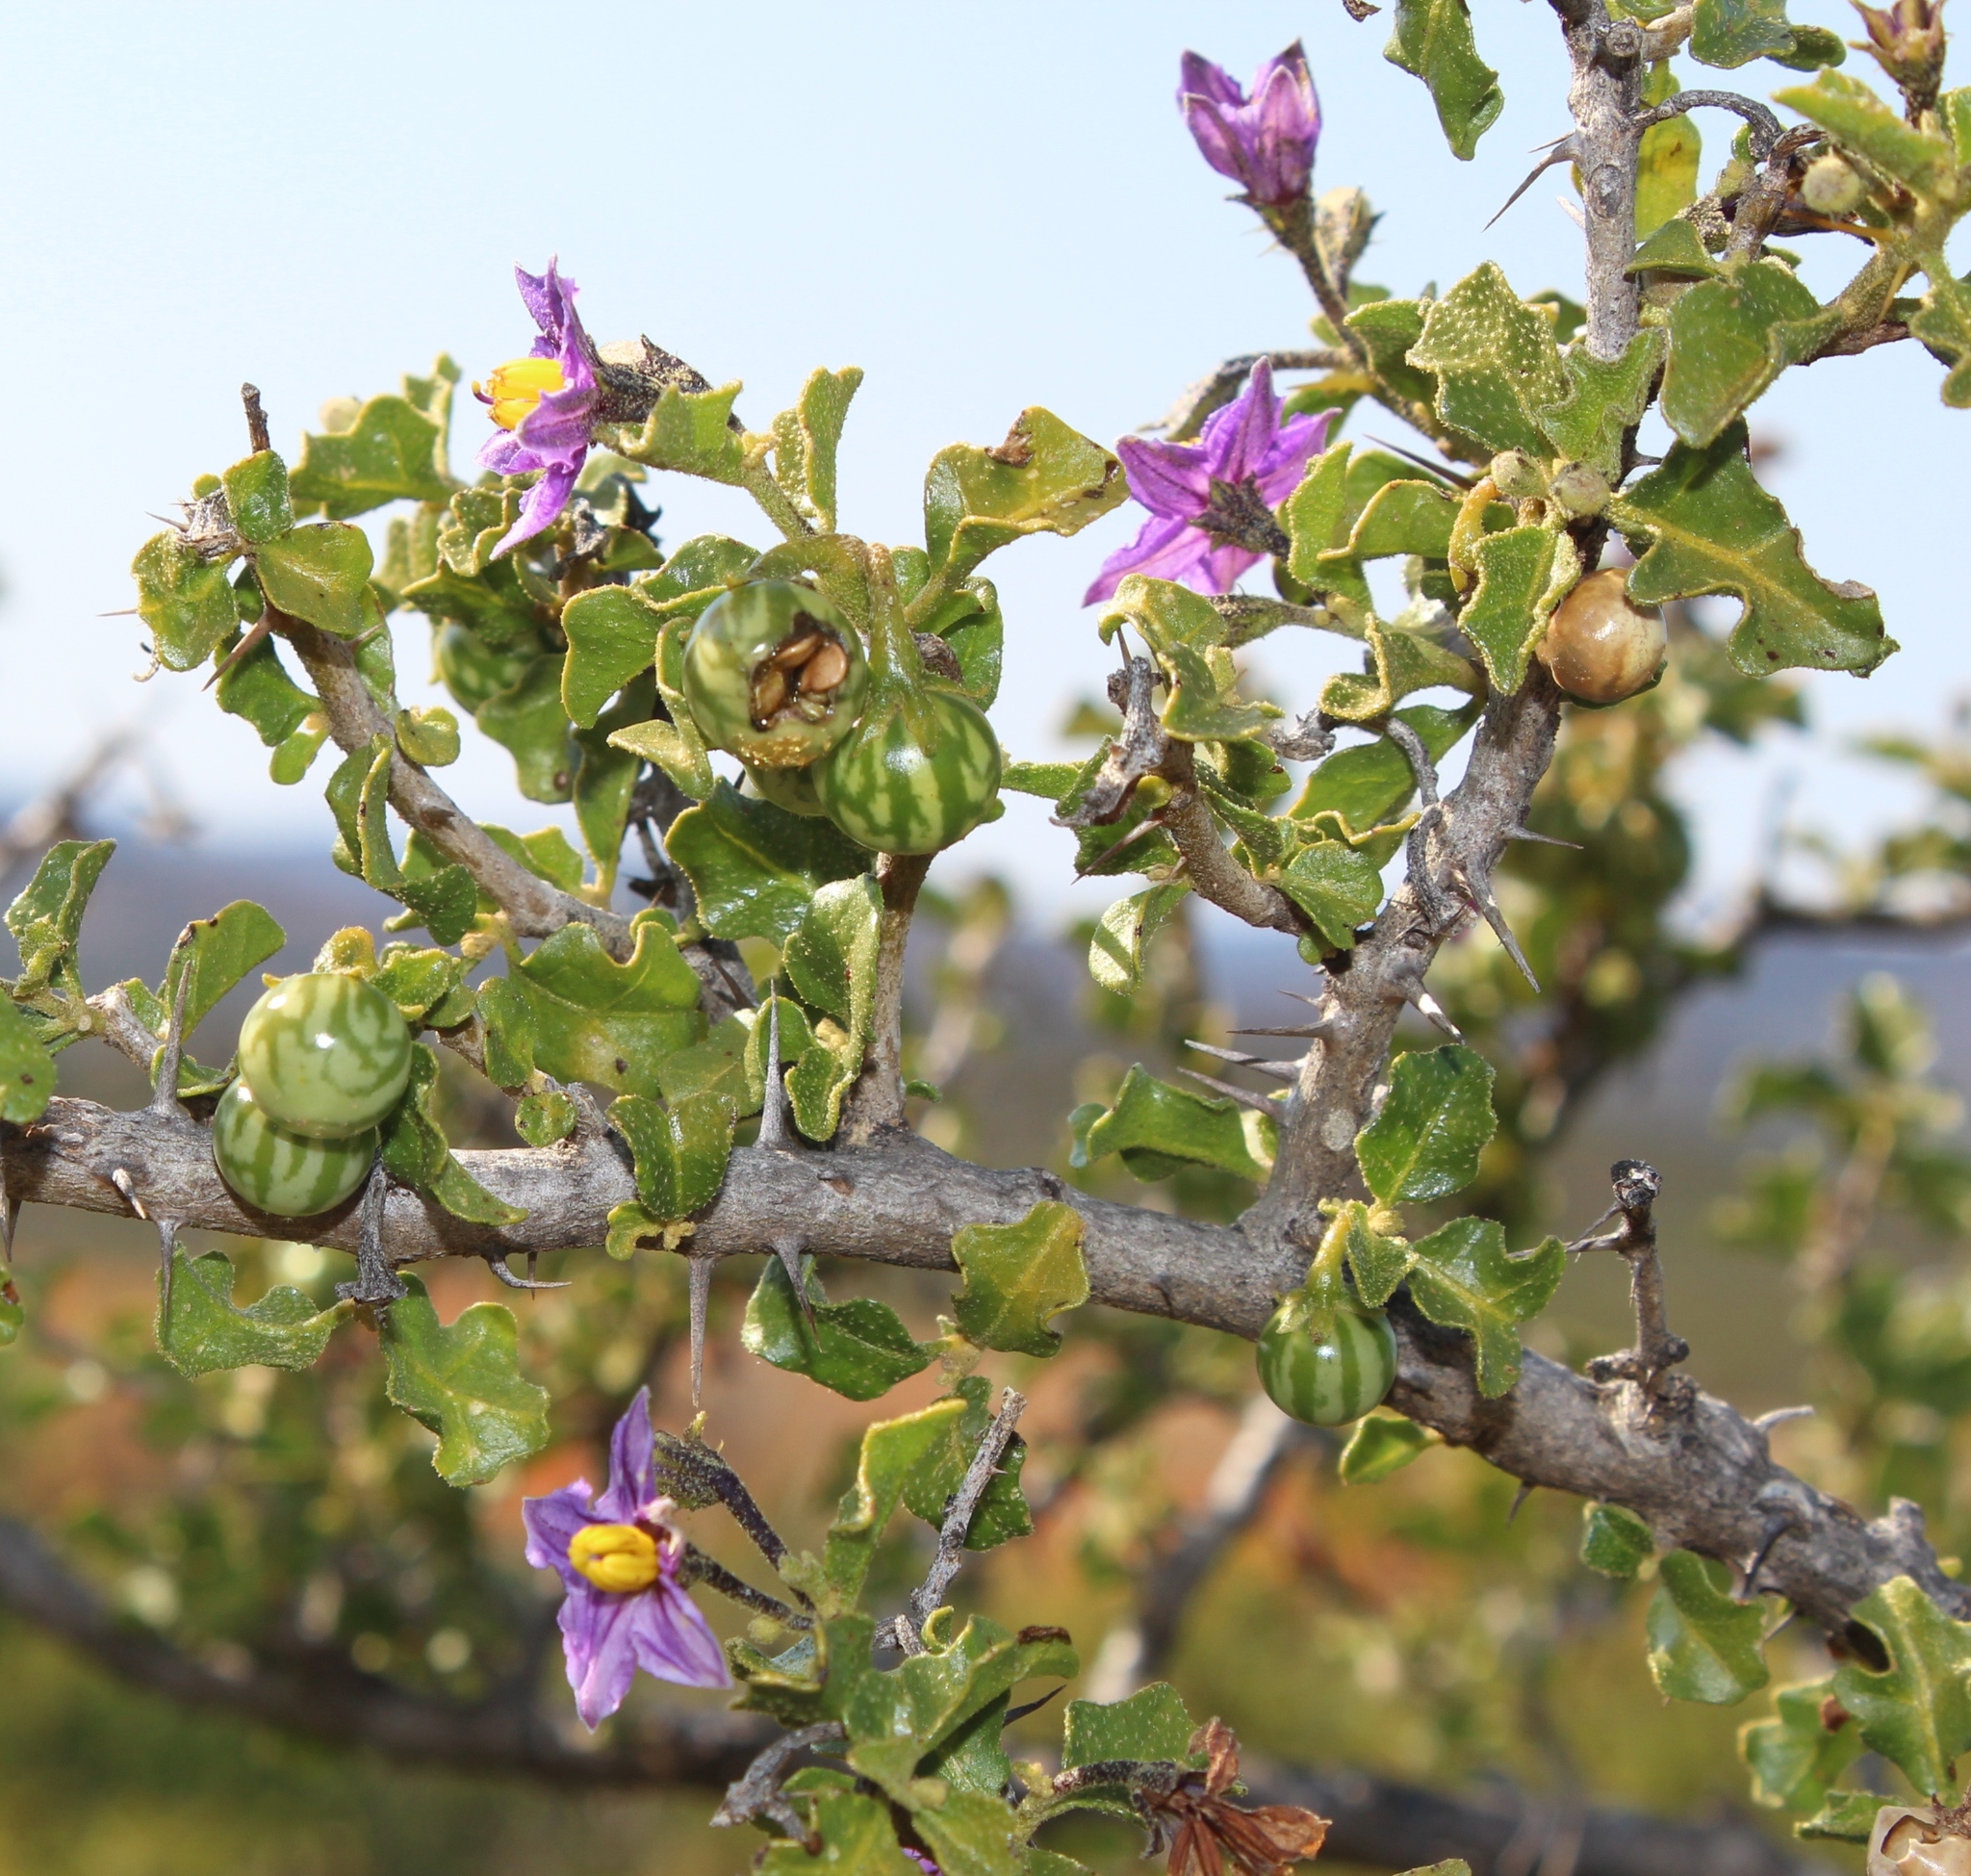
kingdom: Plantae
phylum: Tracheophyta
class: Magnoliopsida
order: Solanales
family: Solanaceae
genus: Solanum
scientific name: Solanum humile
